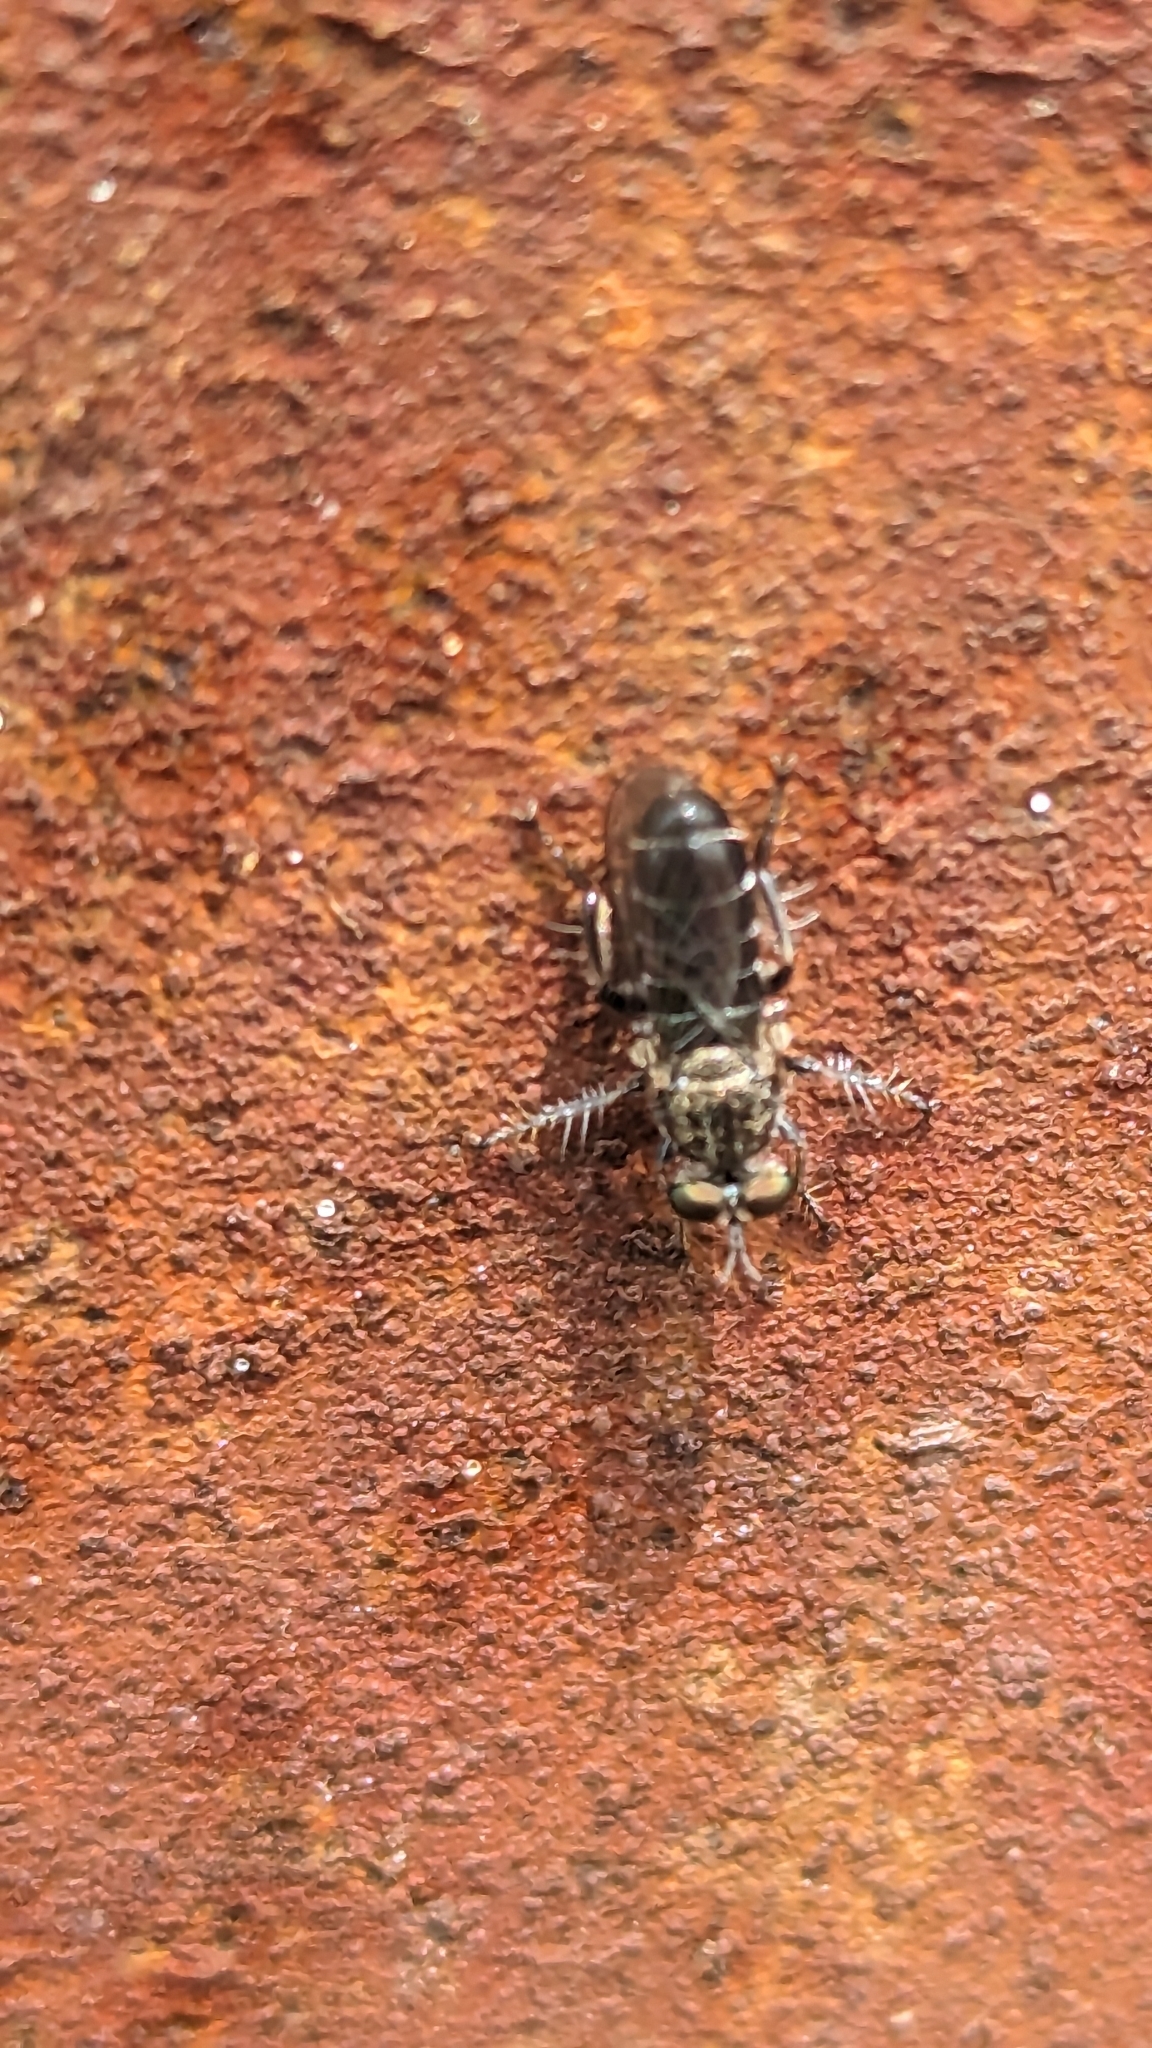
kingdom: Animalia
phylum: Arthropoda
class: Insecta
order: Diptera
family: Asilidae
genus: Atomosia
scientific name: Atomosia puella
